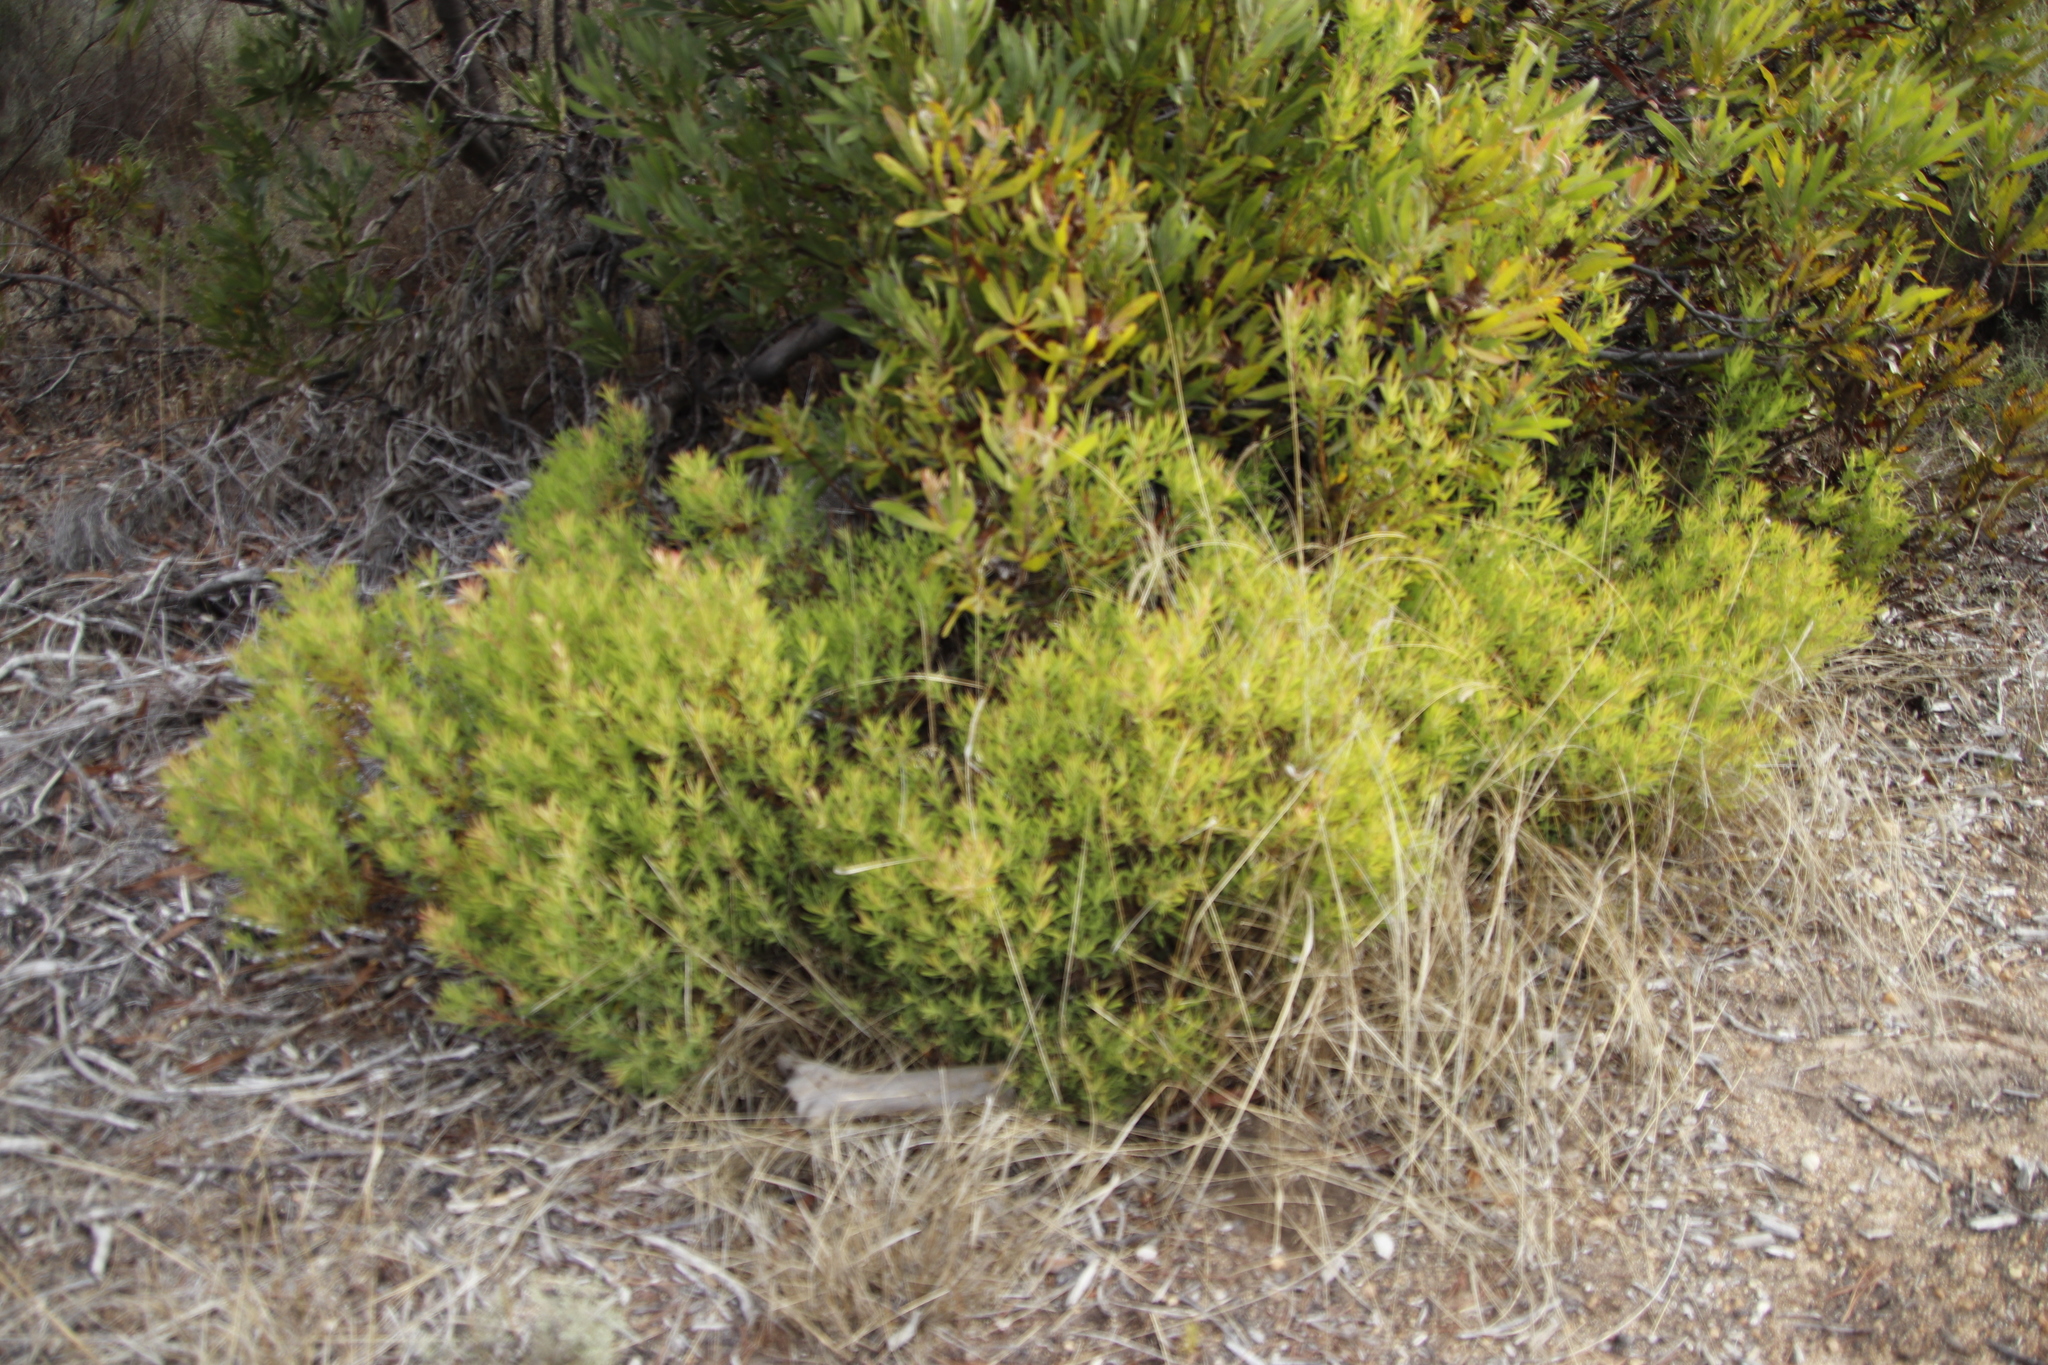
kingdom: Plantae
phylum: Tracheophyta
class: Magnoliopsida
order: Proteales
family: Proteaceae
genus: Leucadendron
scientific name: Leucadendron salignum
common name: Common sunshine conebush
